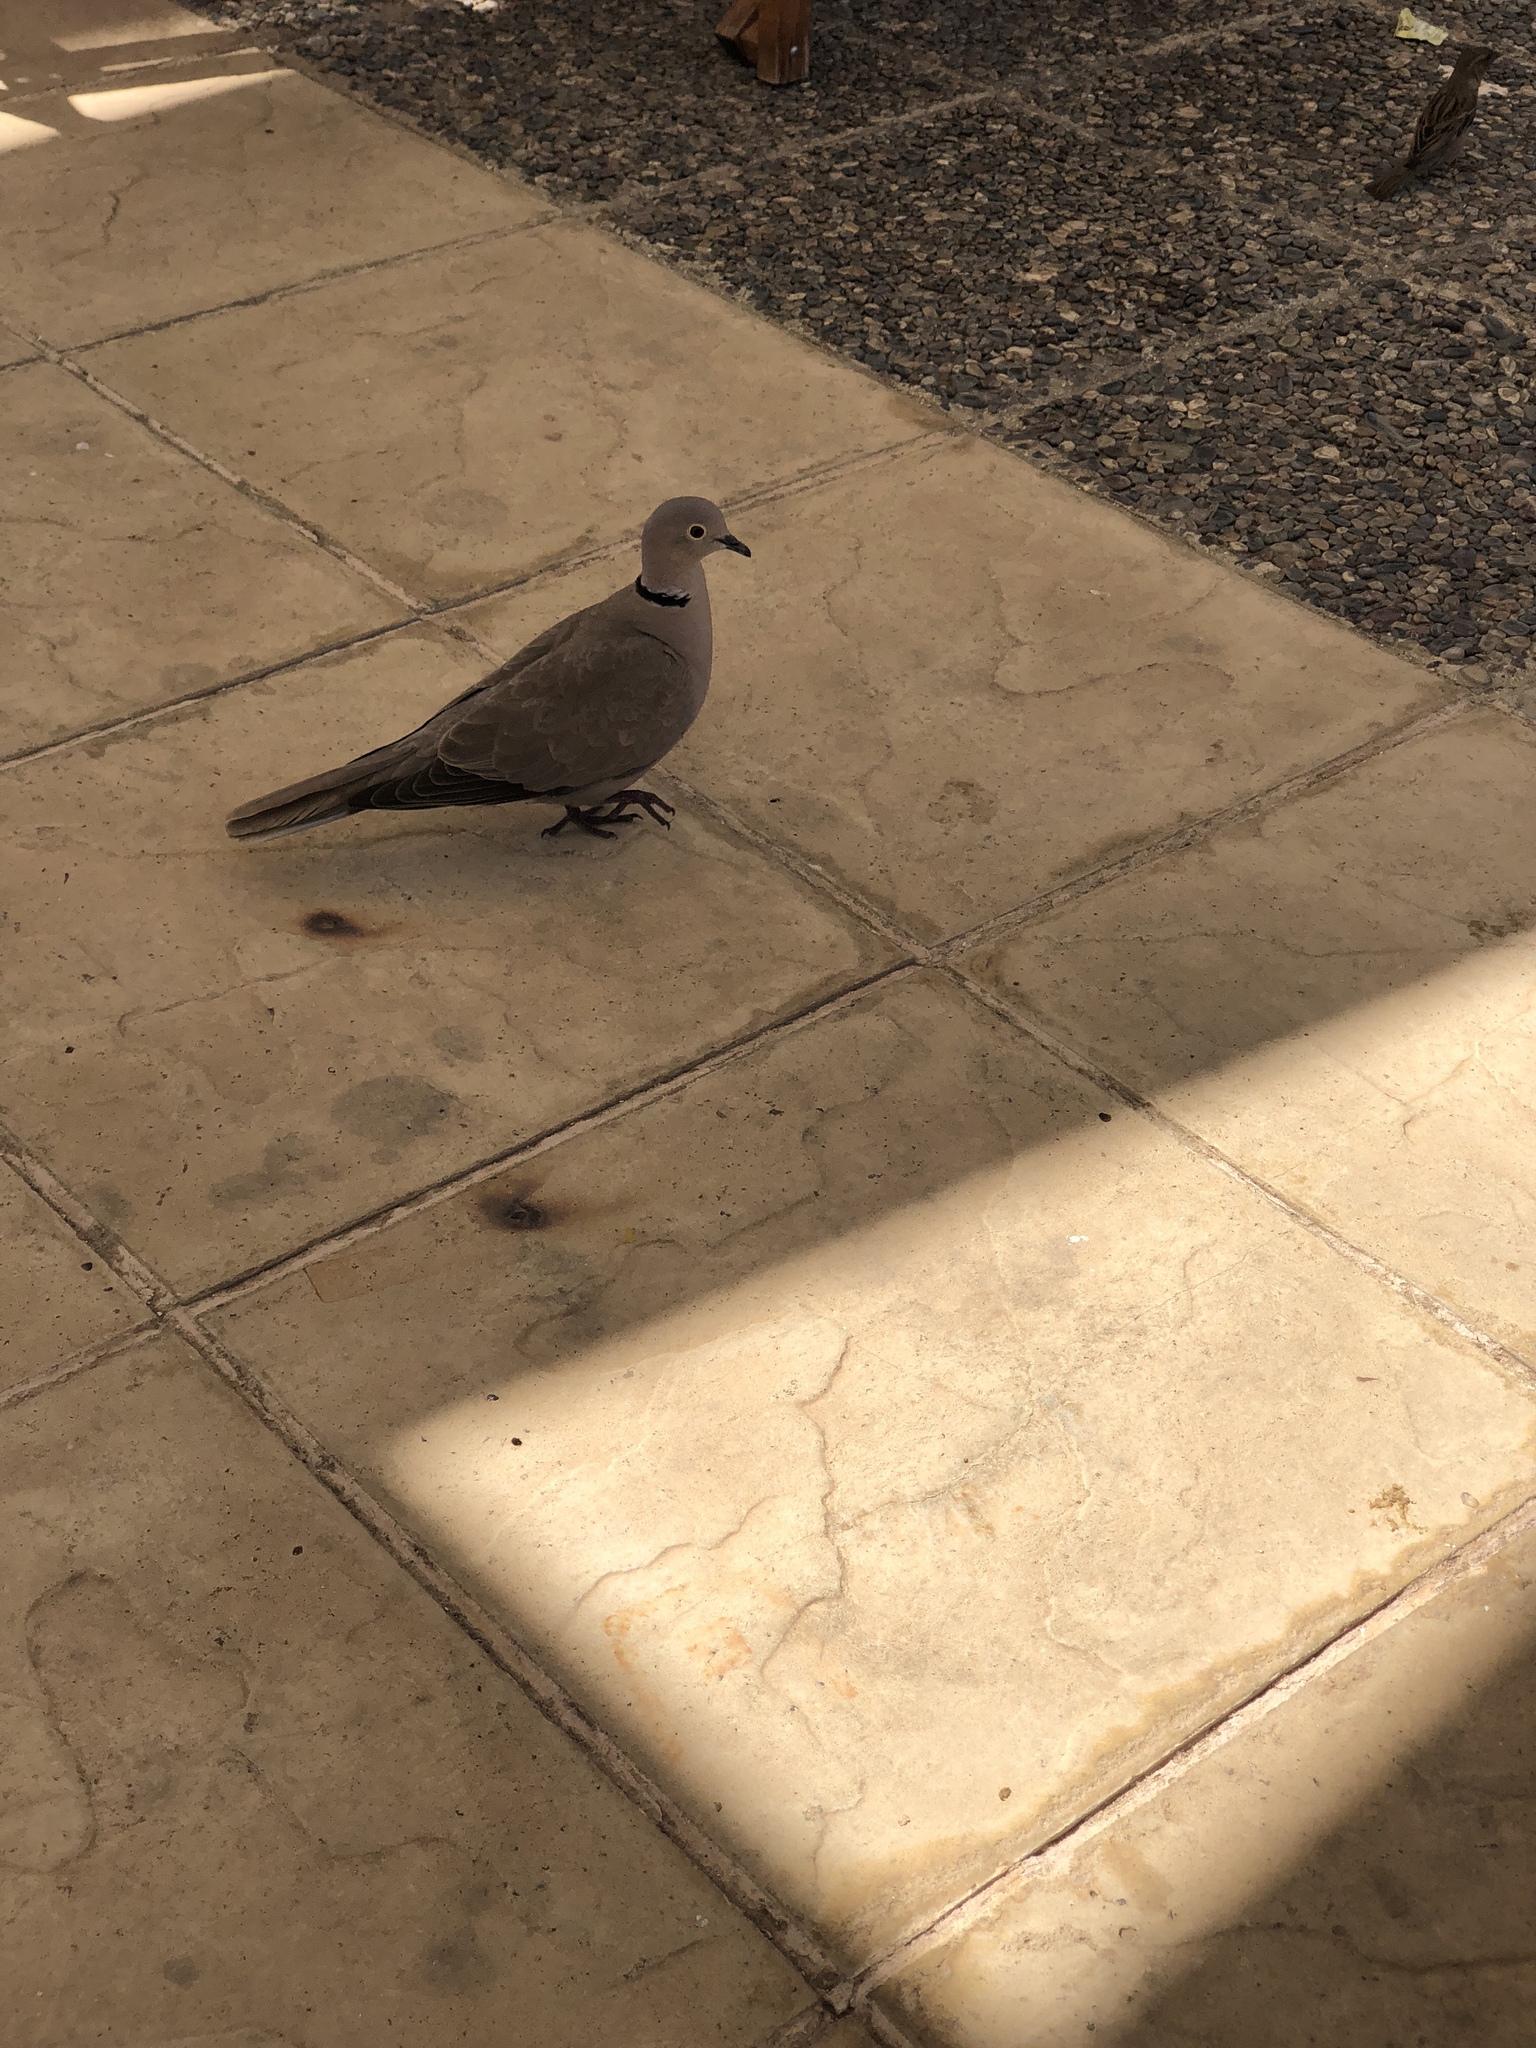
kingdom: Animalia
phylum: Chordata
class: Aves
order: Columbiformes
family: Columbidae
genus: Streptopelia
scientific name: Streptopelia decaocto
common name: Eurasian collared dove
